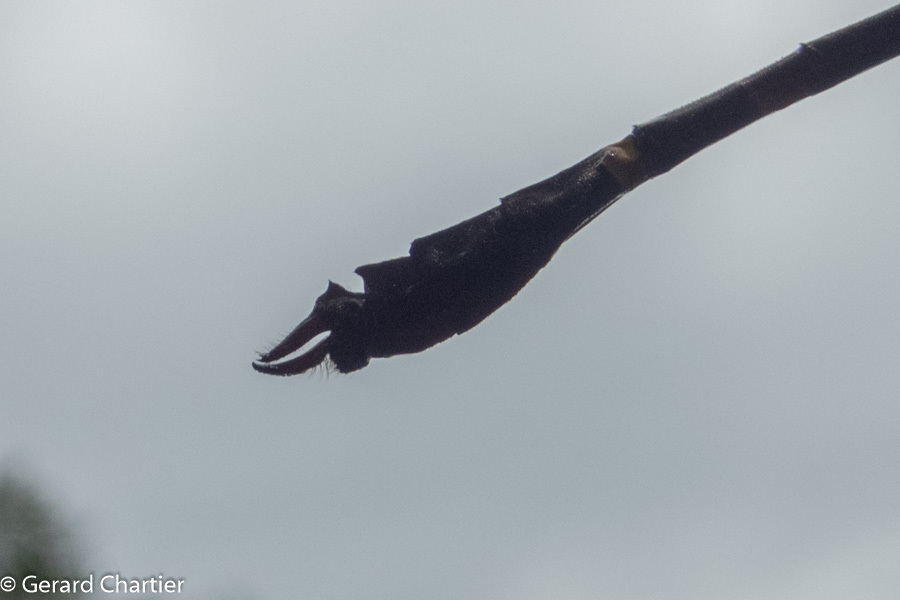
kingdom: Animalia
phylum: Arthropoda
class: Insecta
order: Odonata
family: Macromiidae
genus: Macromia
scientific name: Macromia cincta
